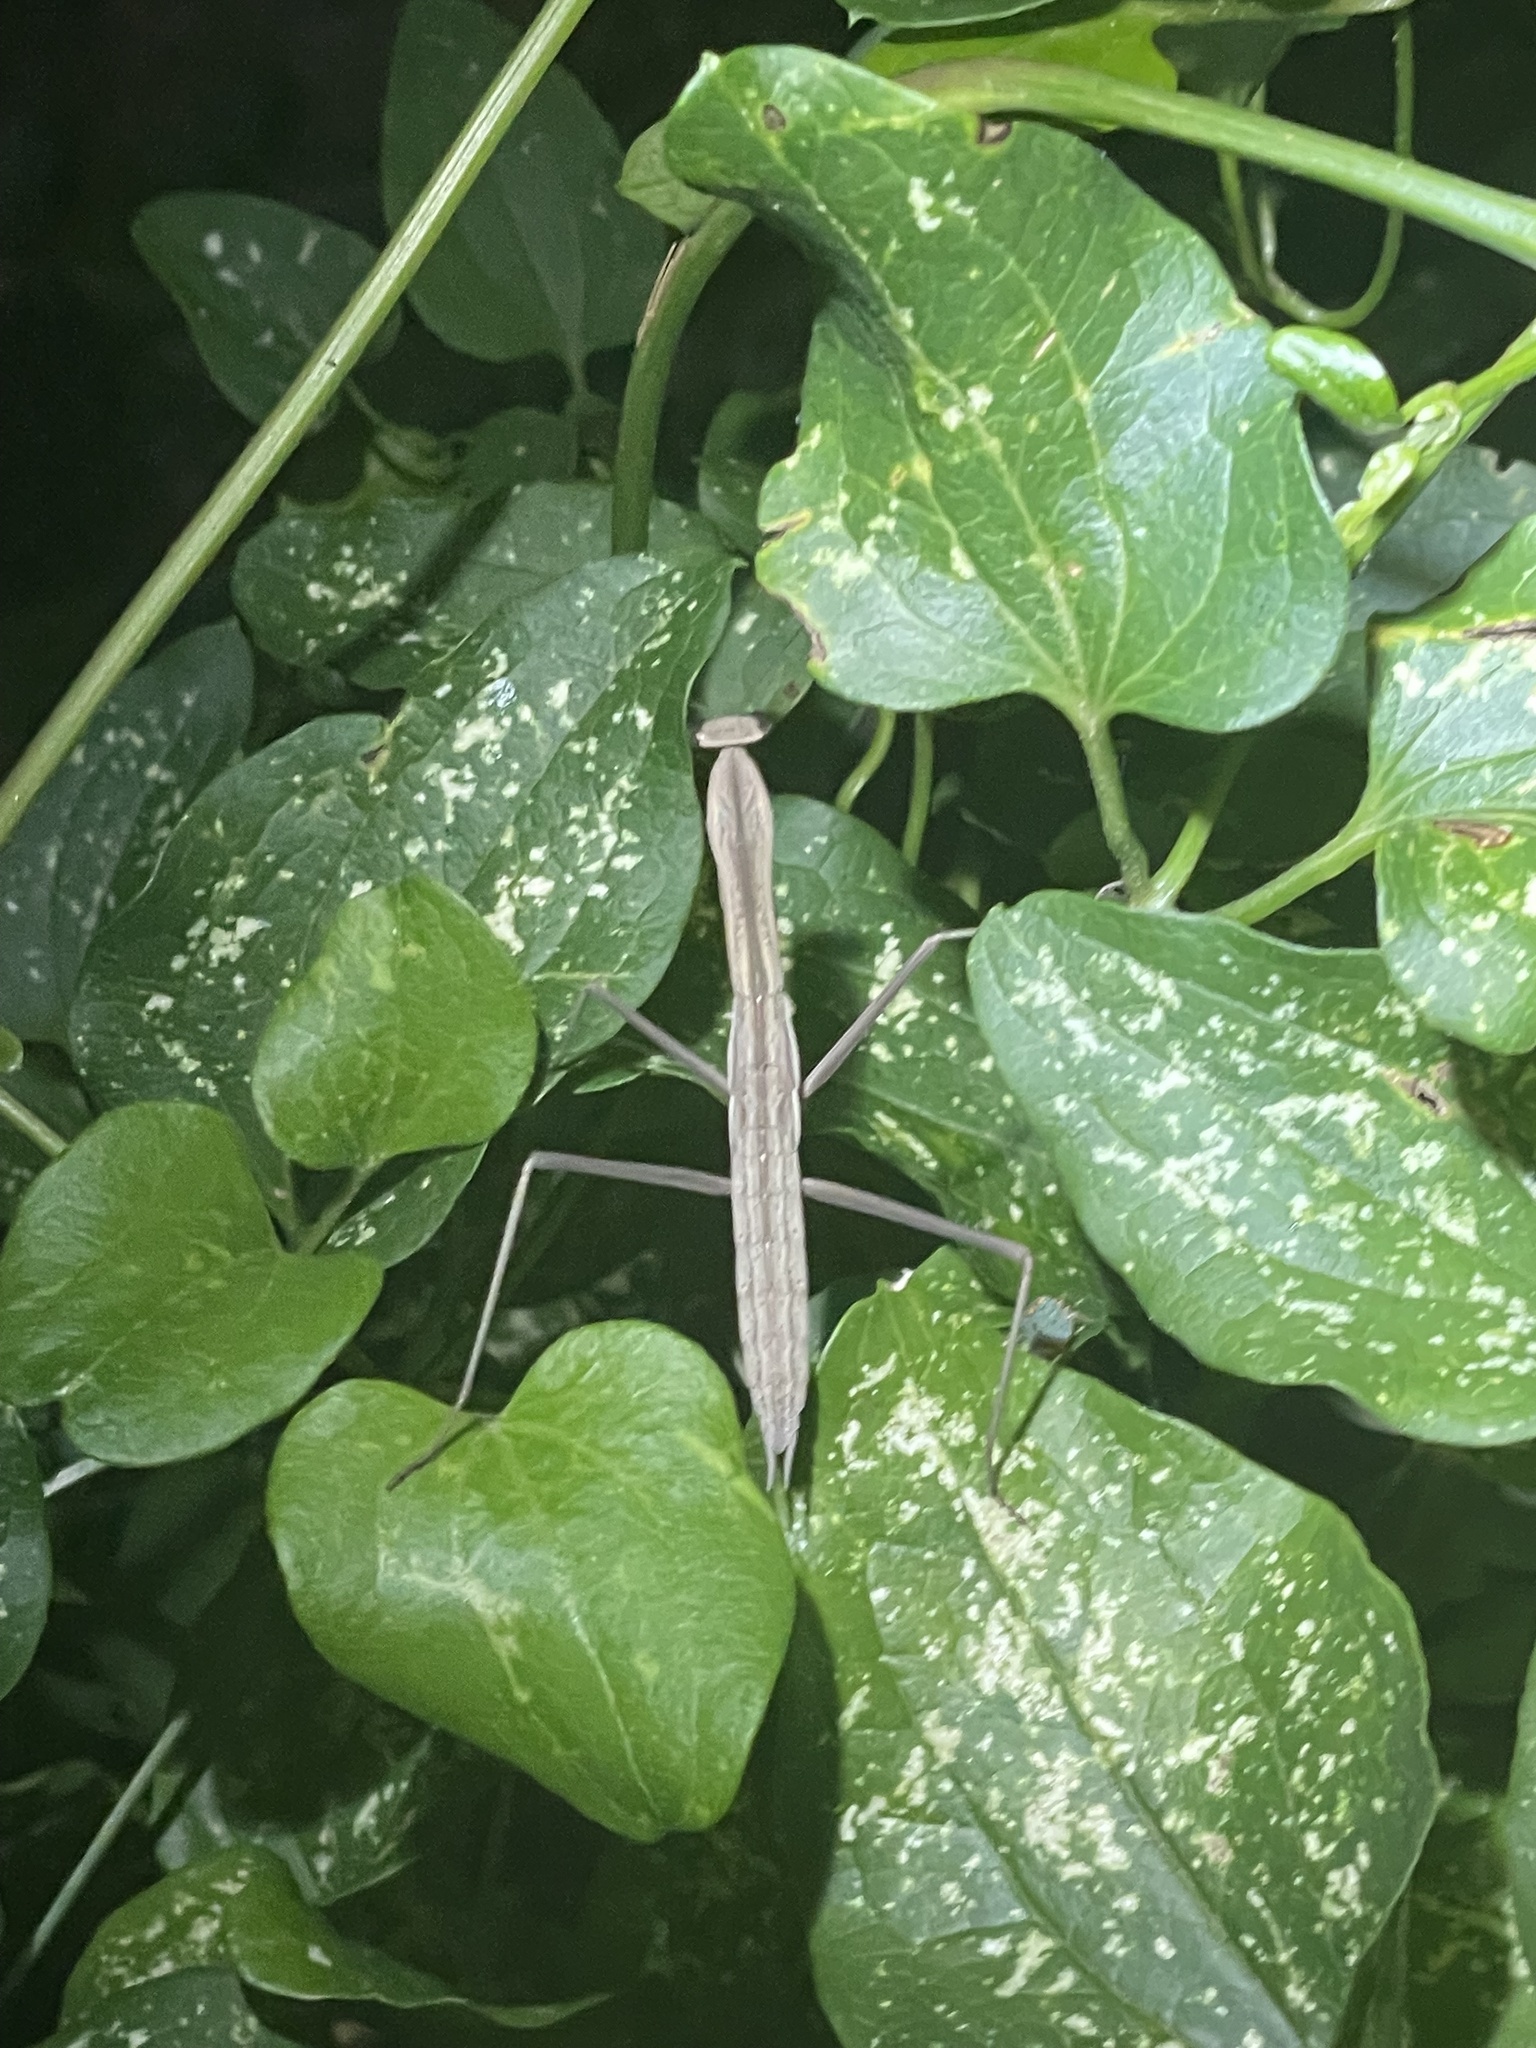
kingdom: Animalia
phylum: Arthropoda
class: Insecta
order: Mantodea
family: Mantidae
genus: Tenodera
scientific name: Tenodera sinensis
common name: Chinese mantis
